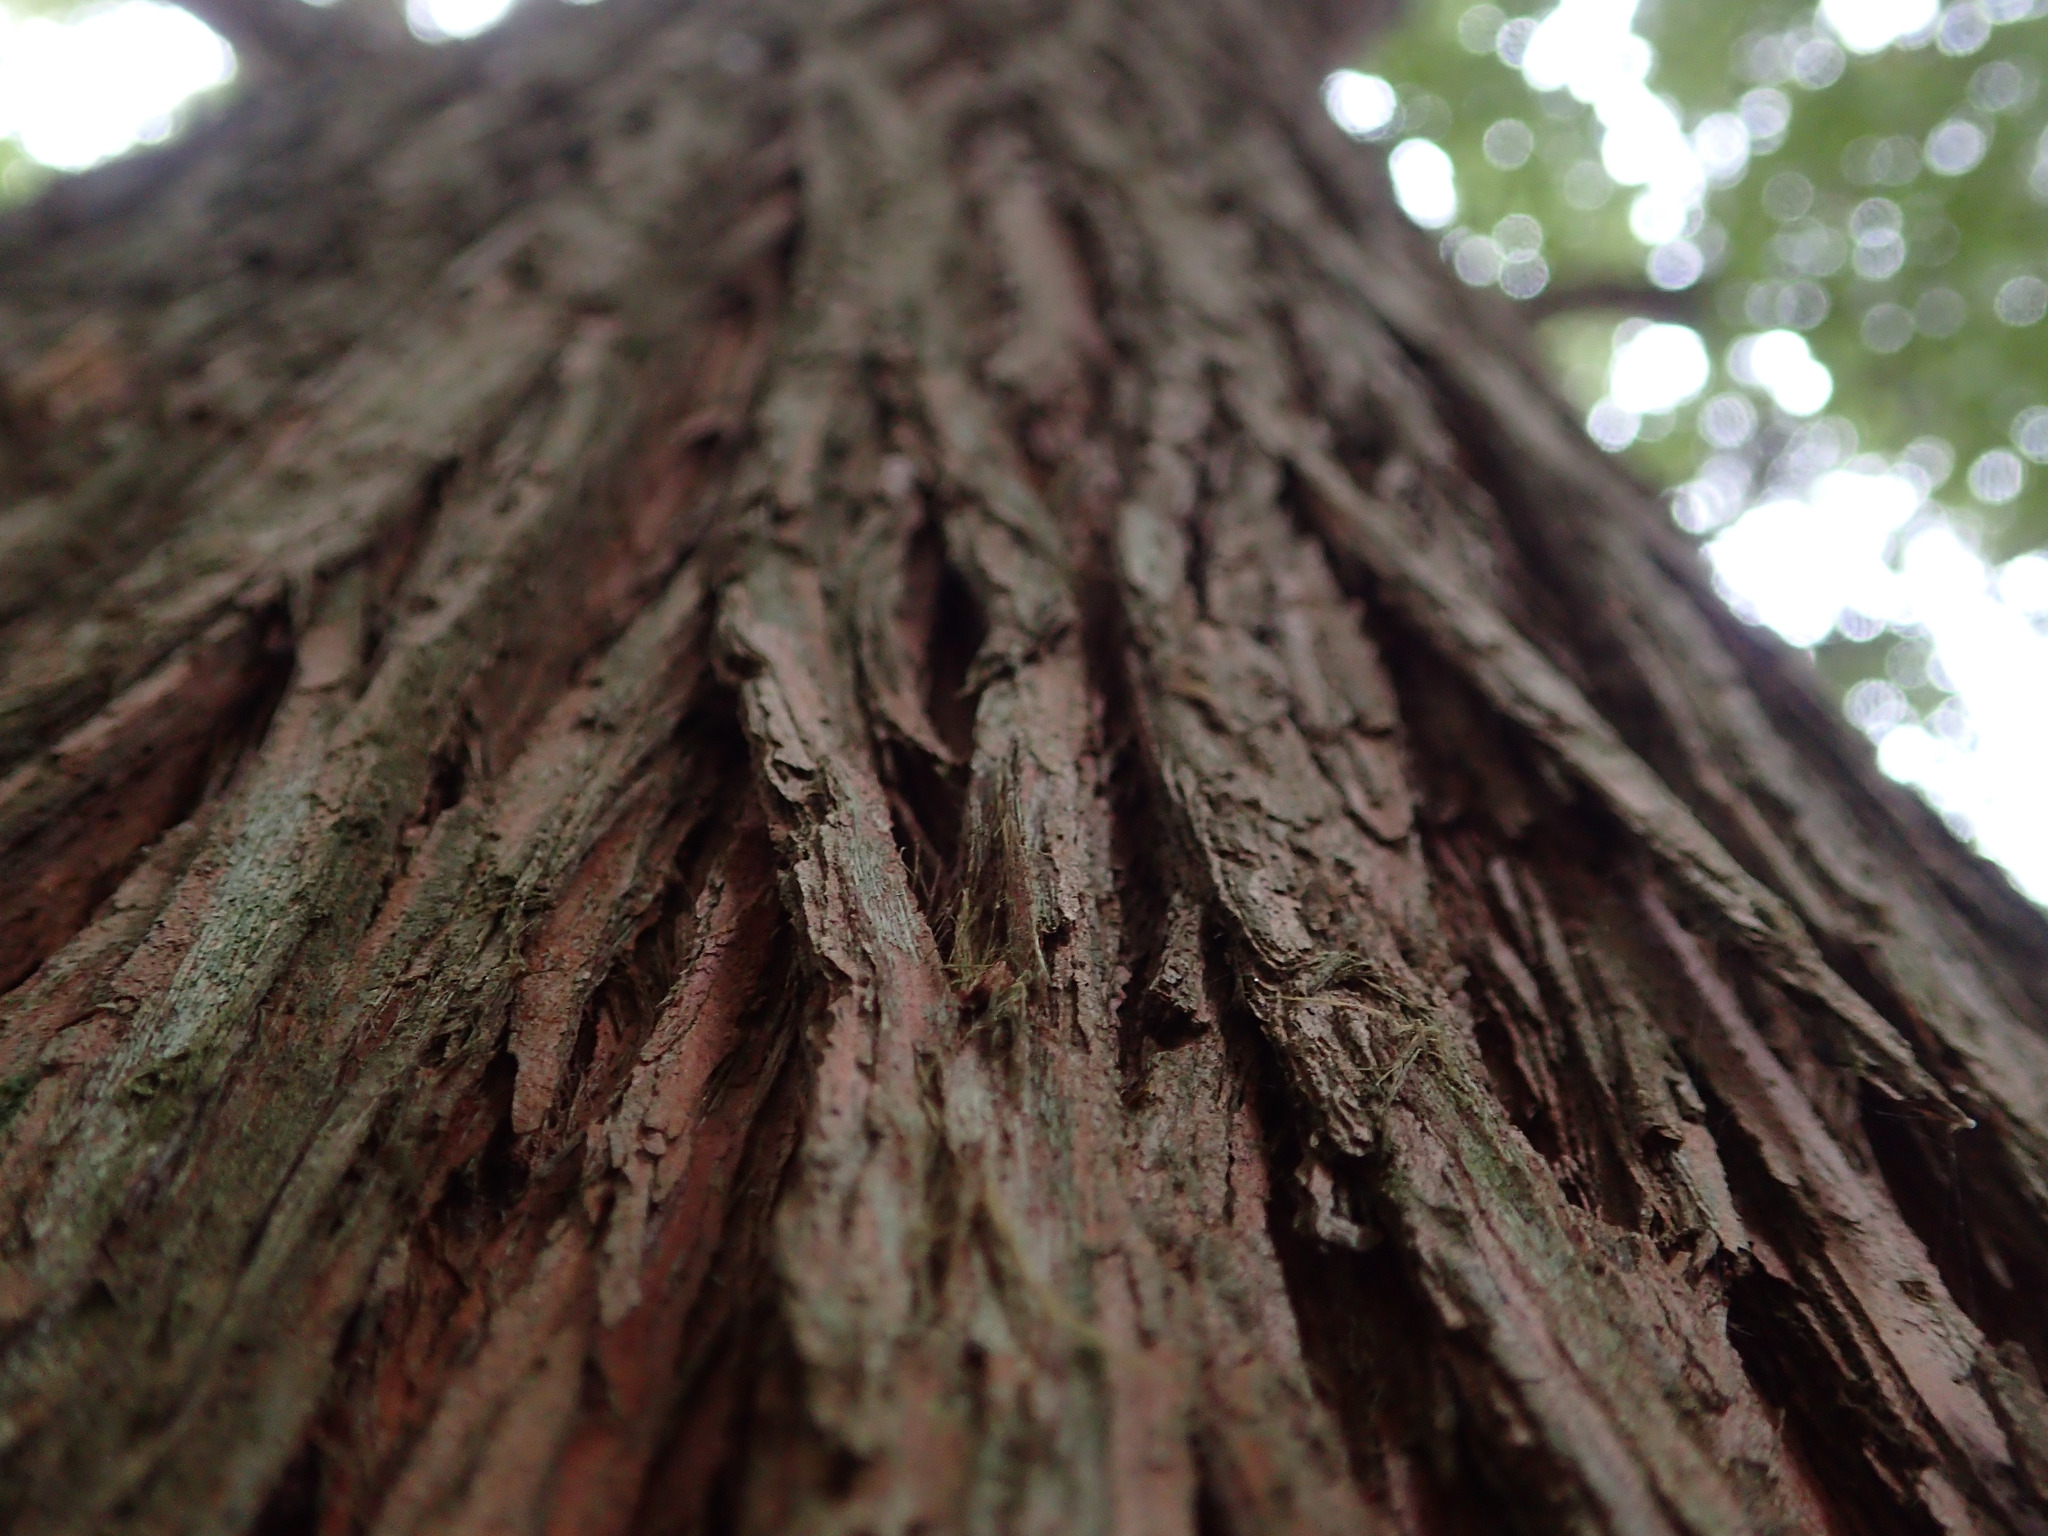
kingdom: Plantae
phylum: Tracheophyta
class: Pinopsida
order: Pinales
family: Podocarpaceae
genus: Podocarpus
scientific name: Podocarpus totara
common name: Totara
